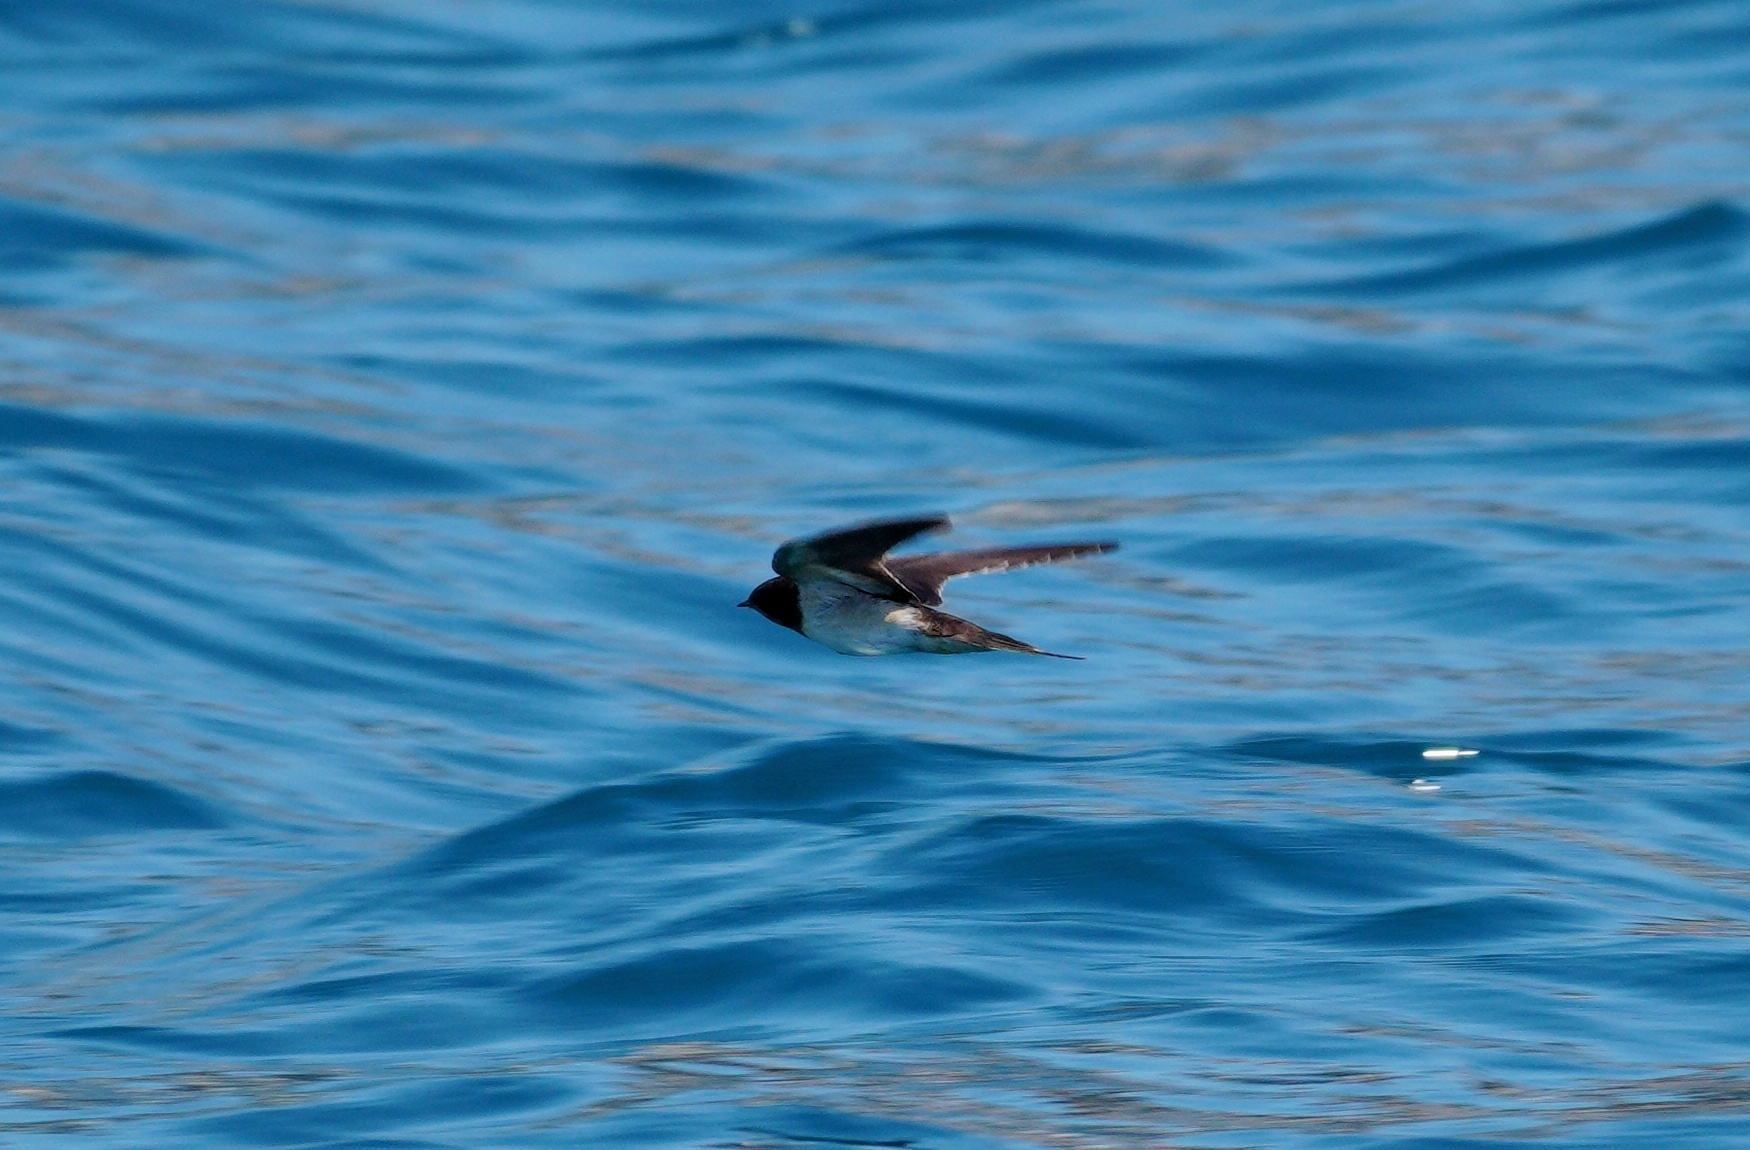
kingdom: Animalia
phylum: Chordata
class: Aves
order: Passeriformes
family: Hirundinidae
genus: Hirundo
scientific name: Hirundo rustica
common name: Barn swallow
